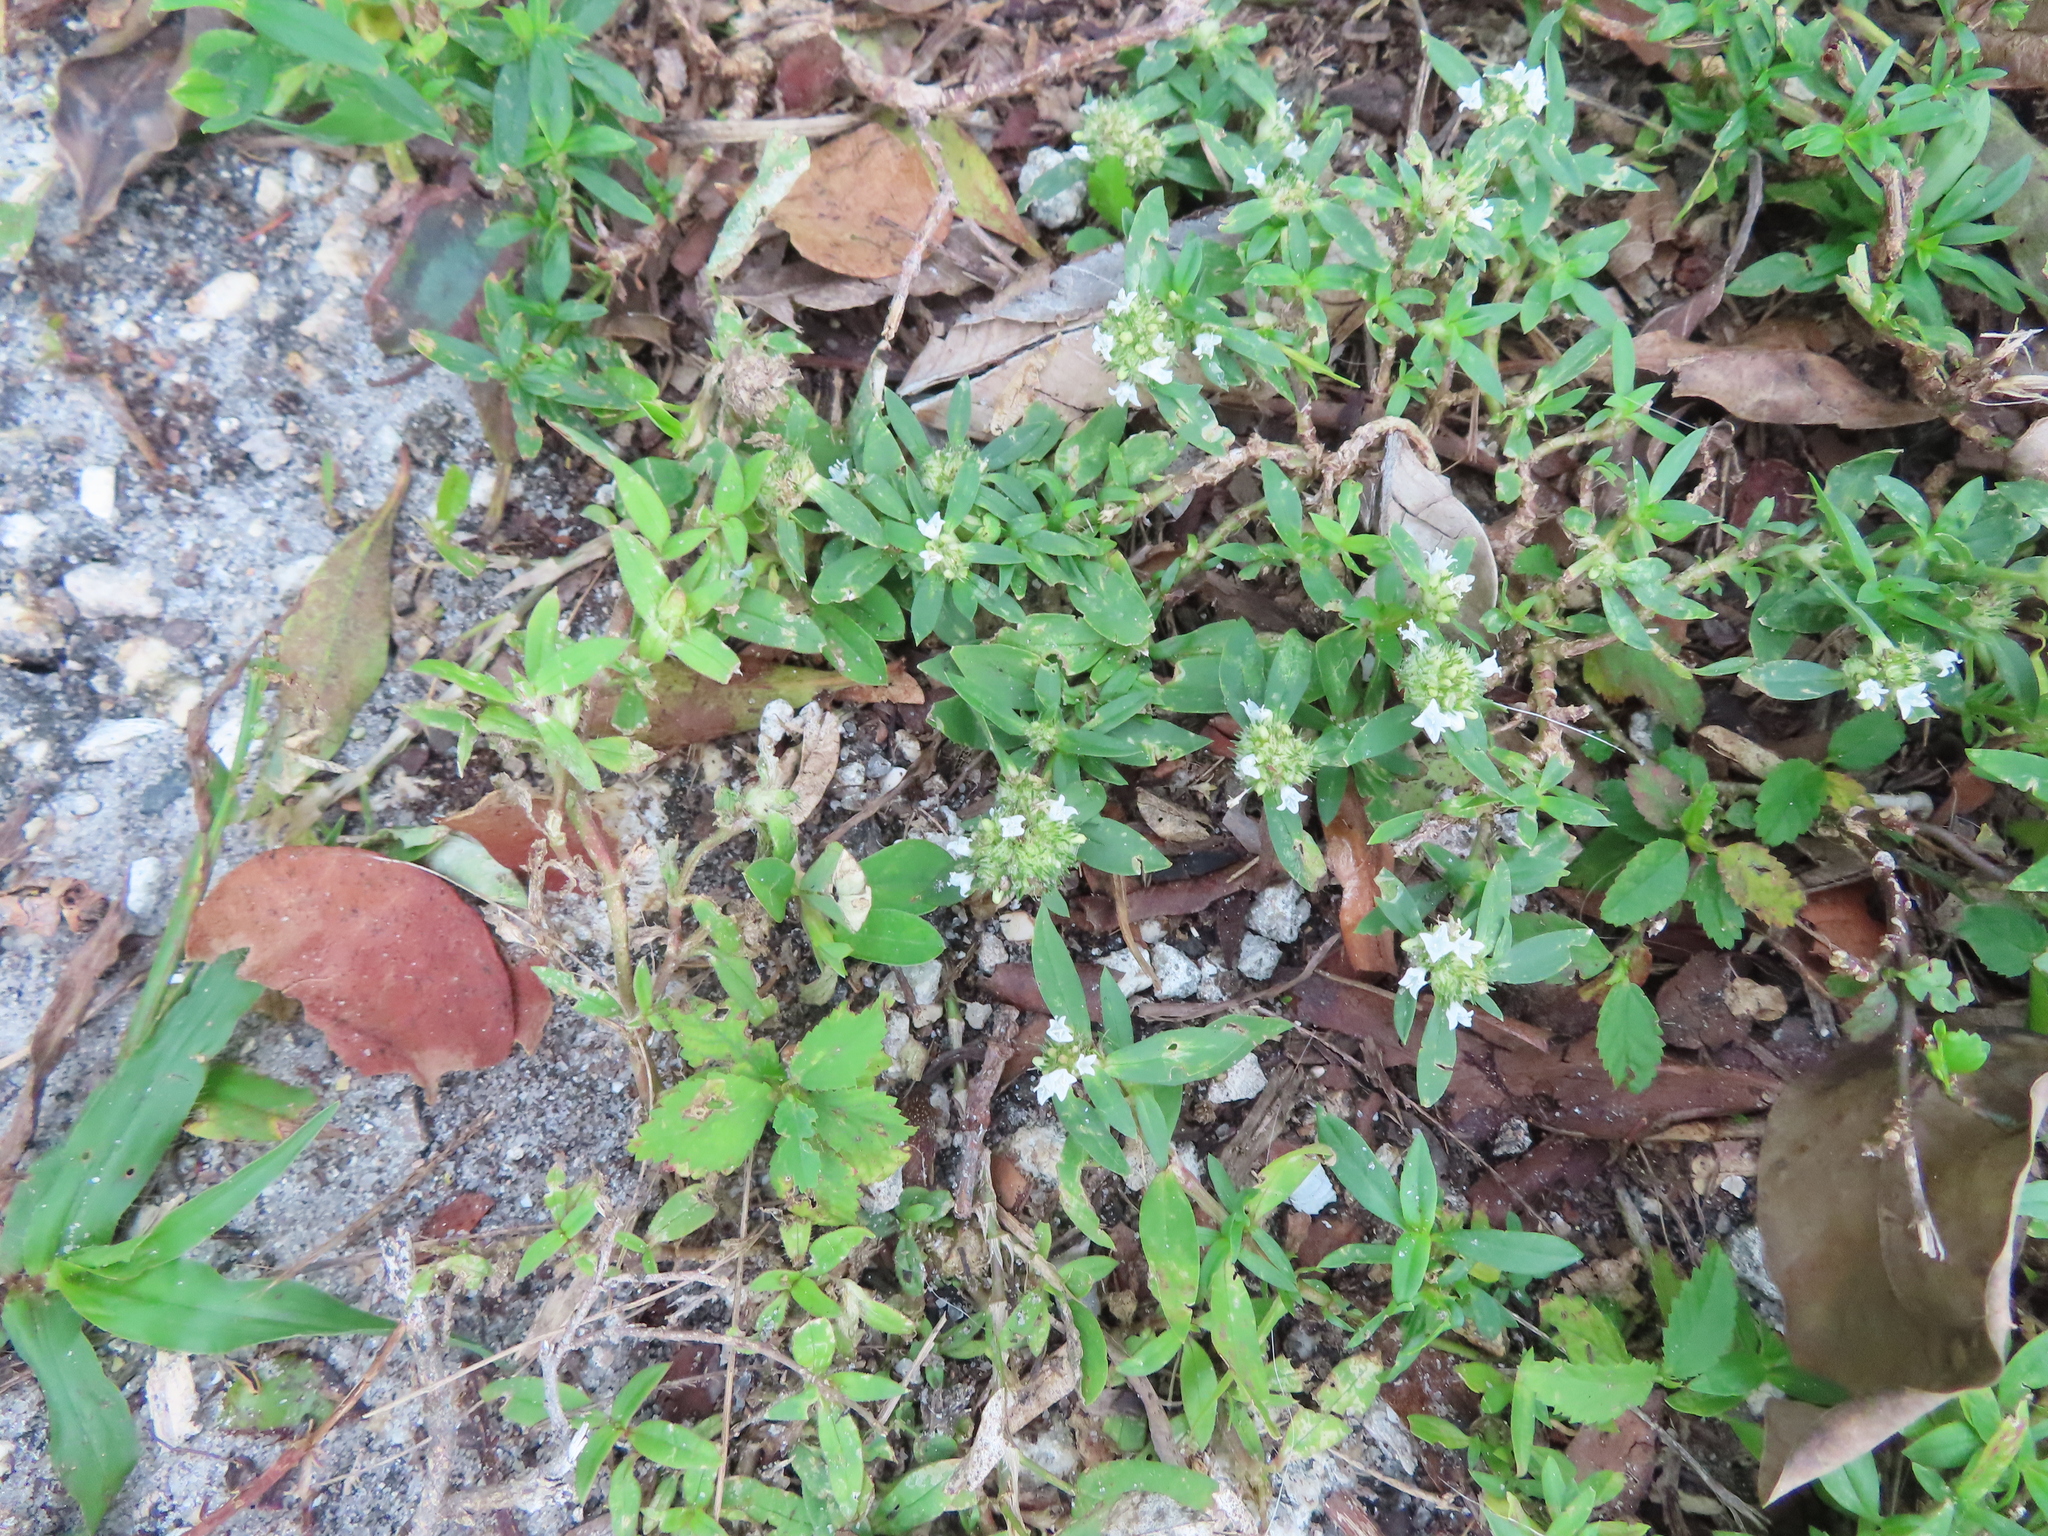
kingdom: Plantae
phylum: Tracheophyta
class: Magnoliopsida
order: Gentianales
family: Rubiaceae
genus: Spermacoce
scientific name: Spermacoce verticillata
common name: Shrubby false buttonweed
